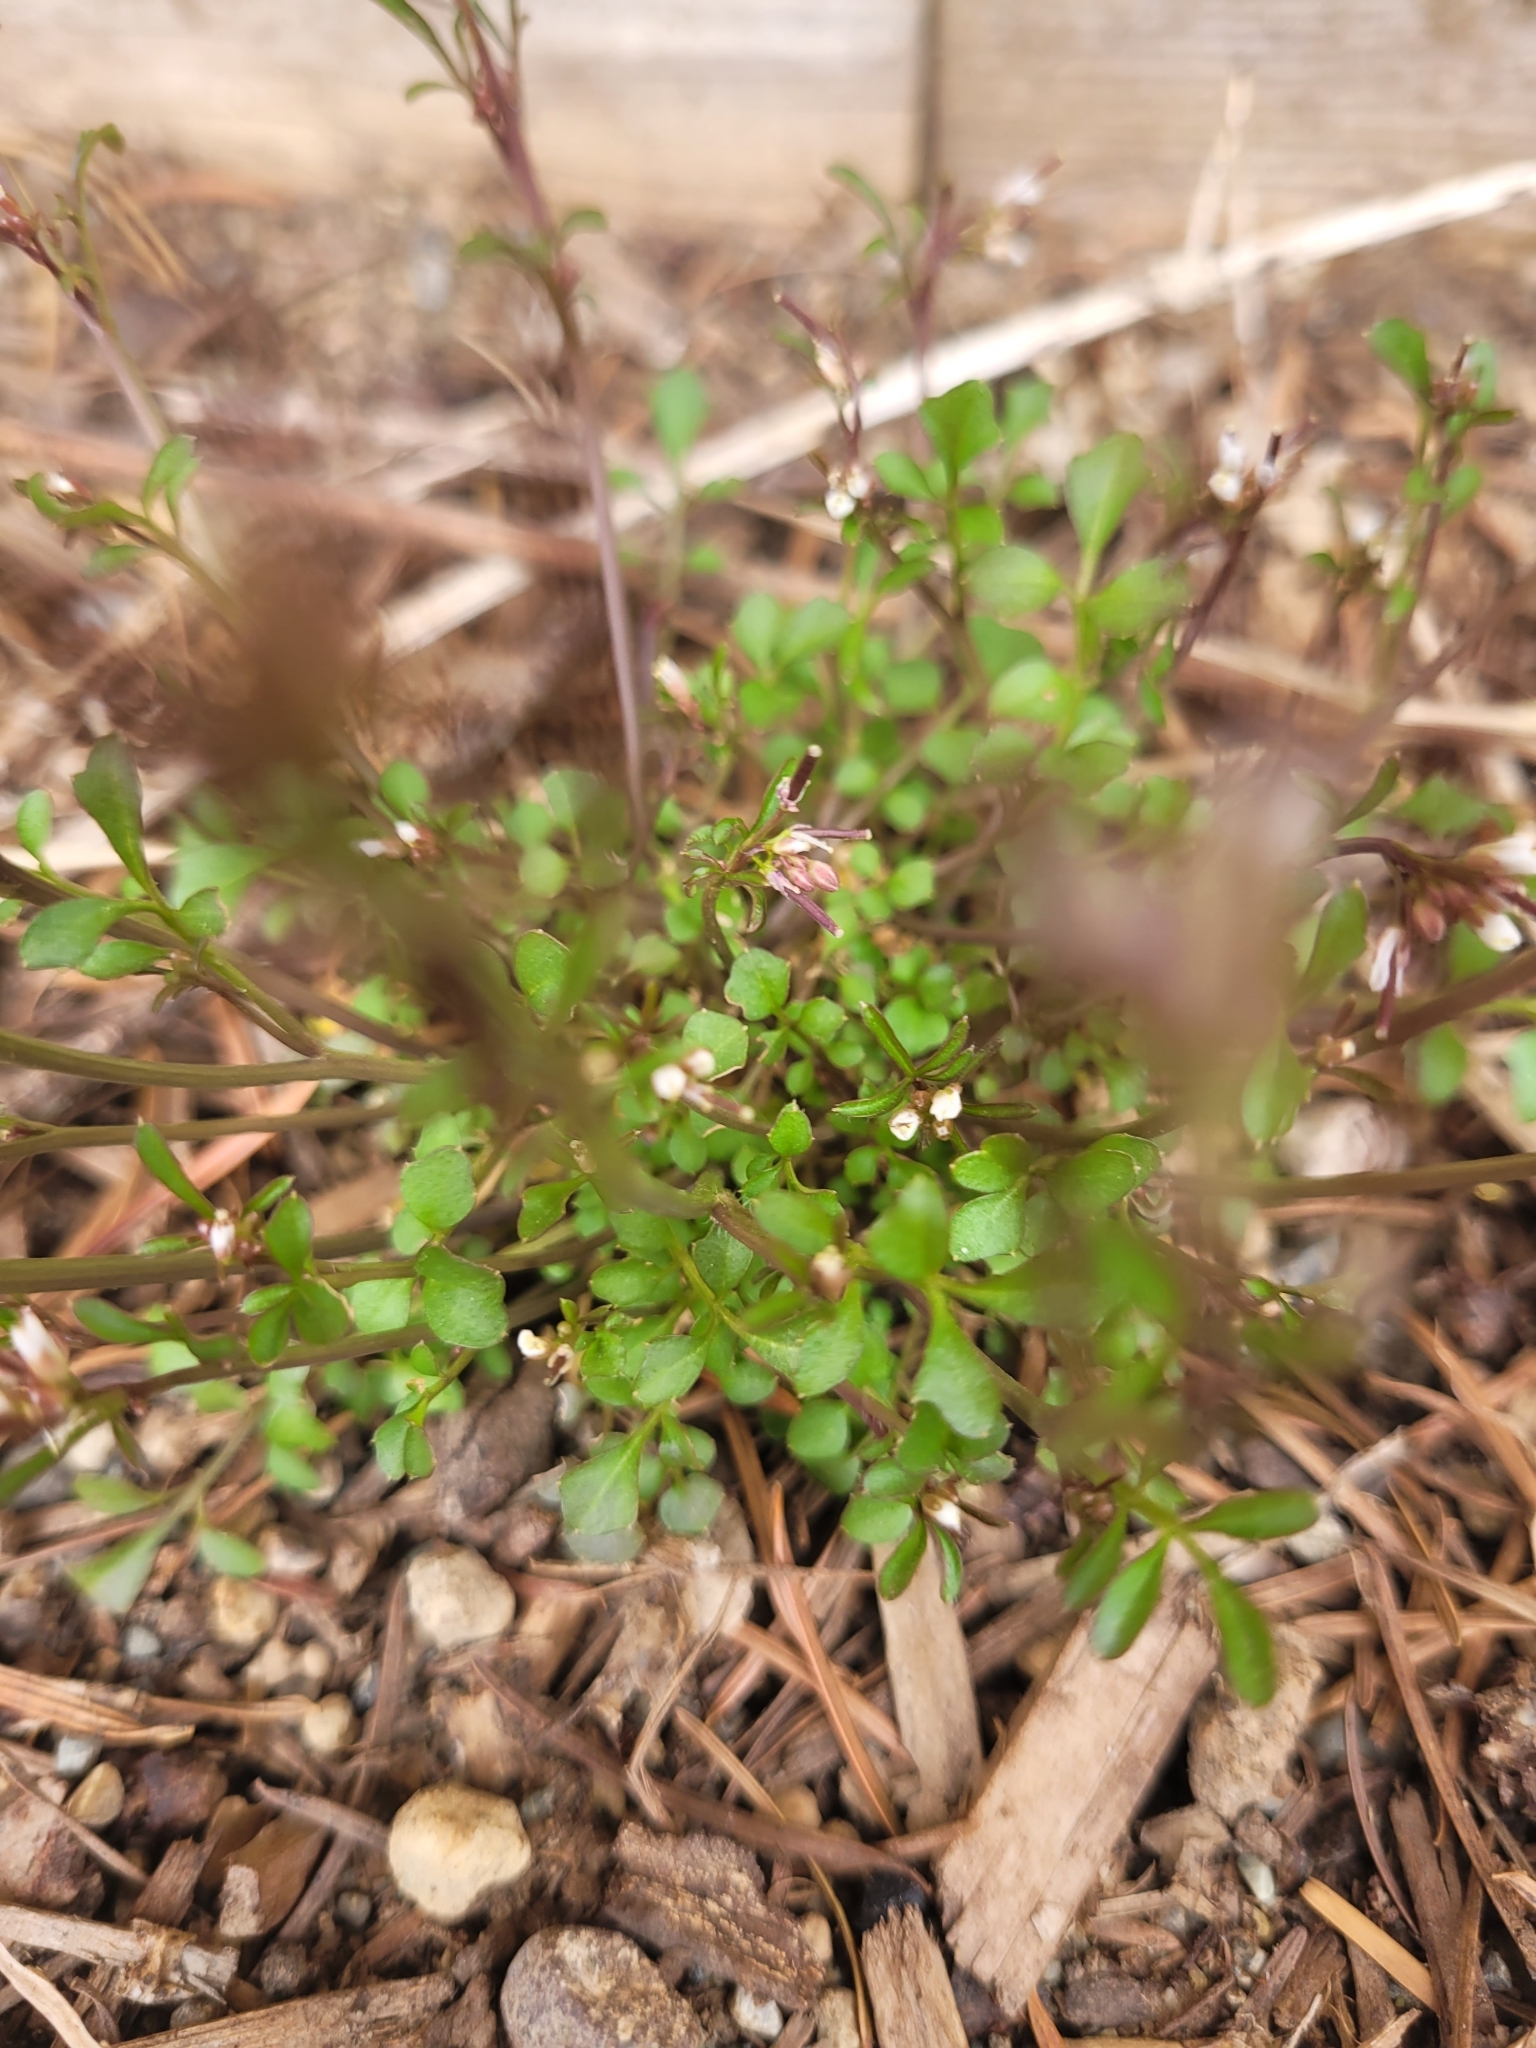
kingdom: Plantae
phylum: Tracheophyta
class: Magnoliopsida
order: Brassicales
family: Brassicaceae
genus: Cardamine
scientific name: Cardamine hirsuta
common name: Hairy bittercress
